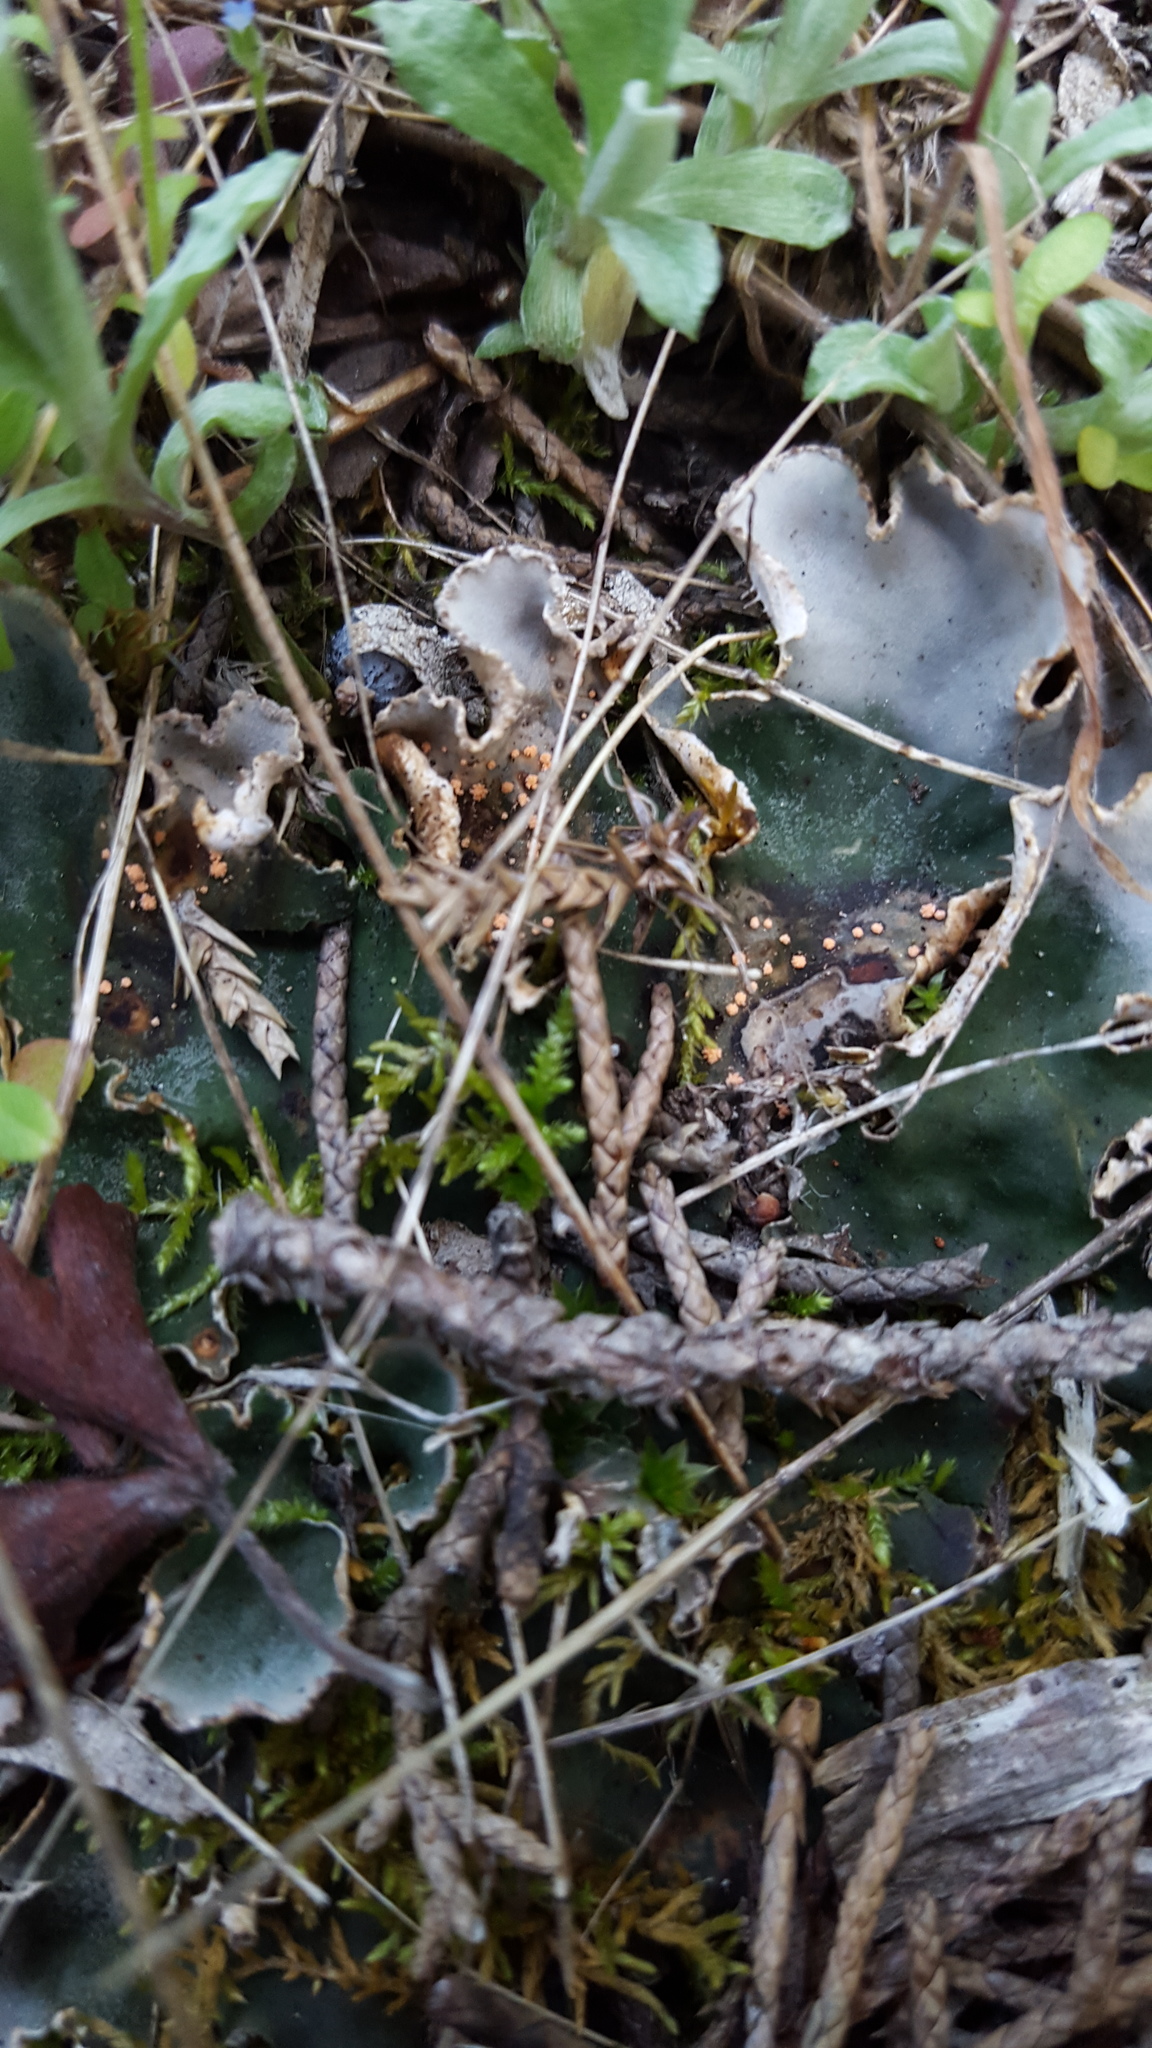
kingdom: Fungi
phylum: Ascomycota
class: Sordariomycetes
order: Hypocreales
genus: Illosporium
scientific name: Illosporium roseum
